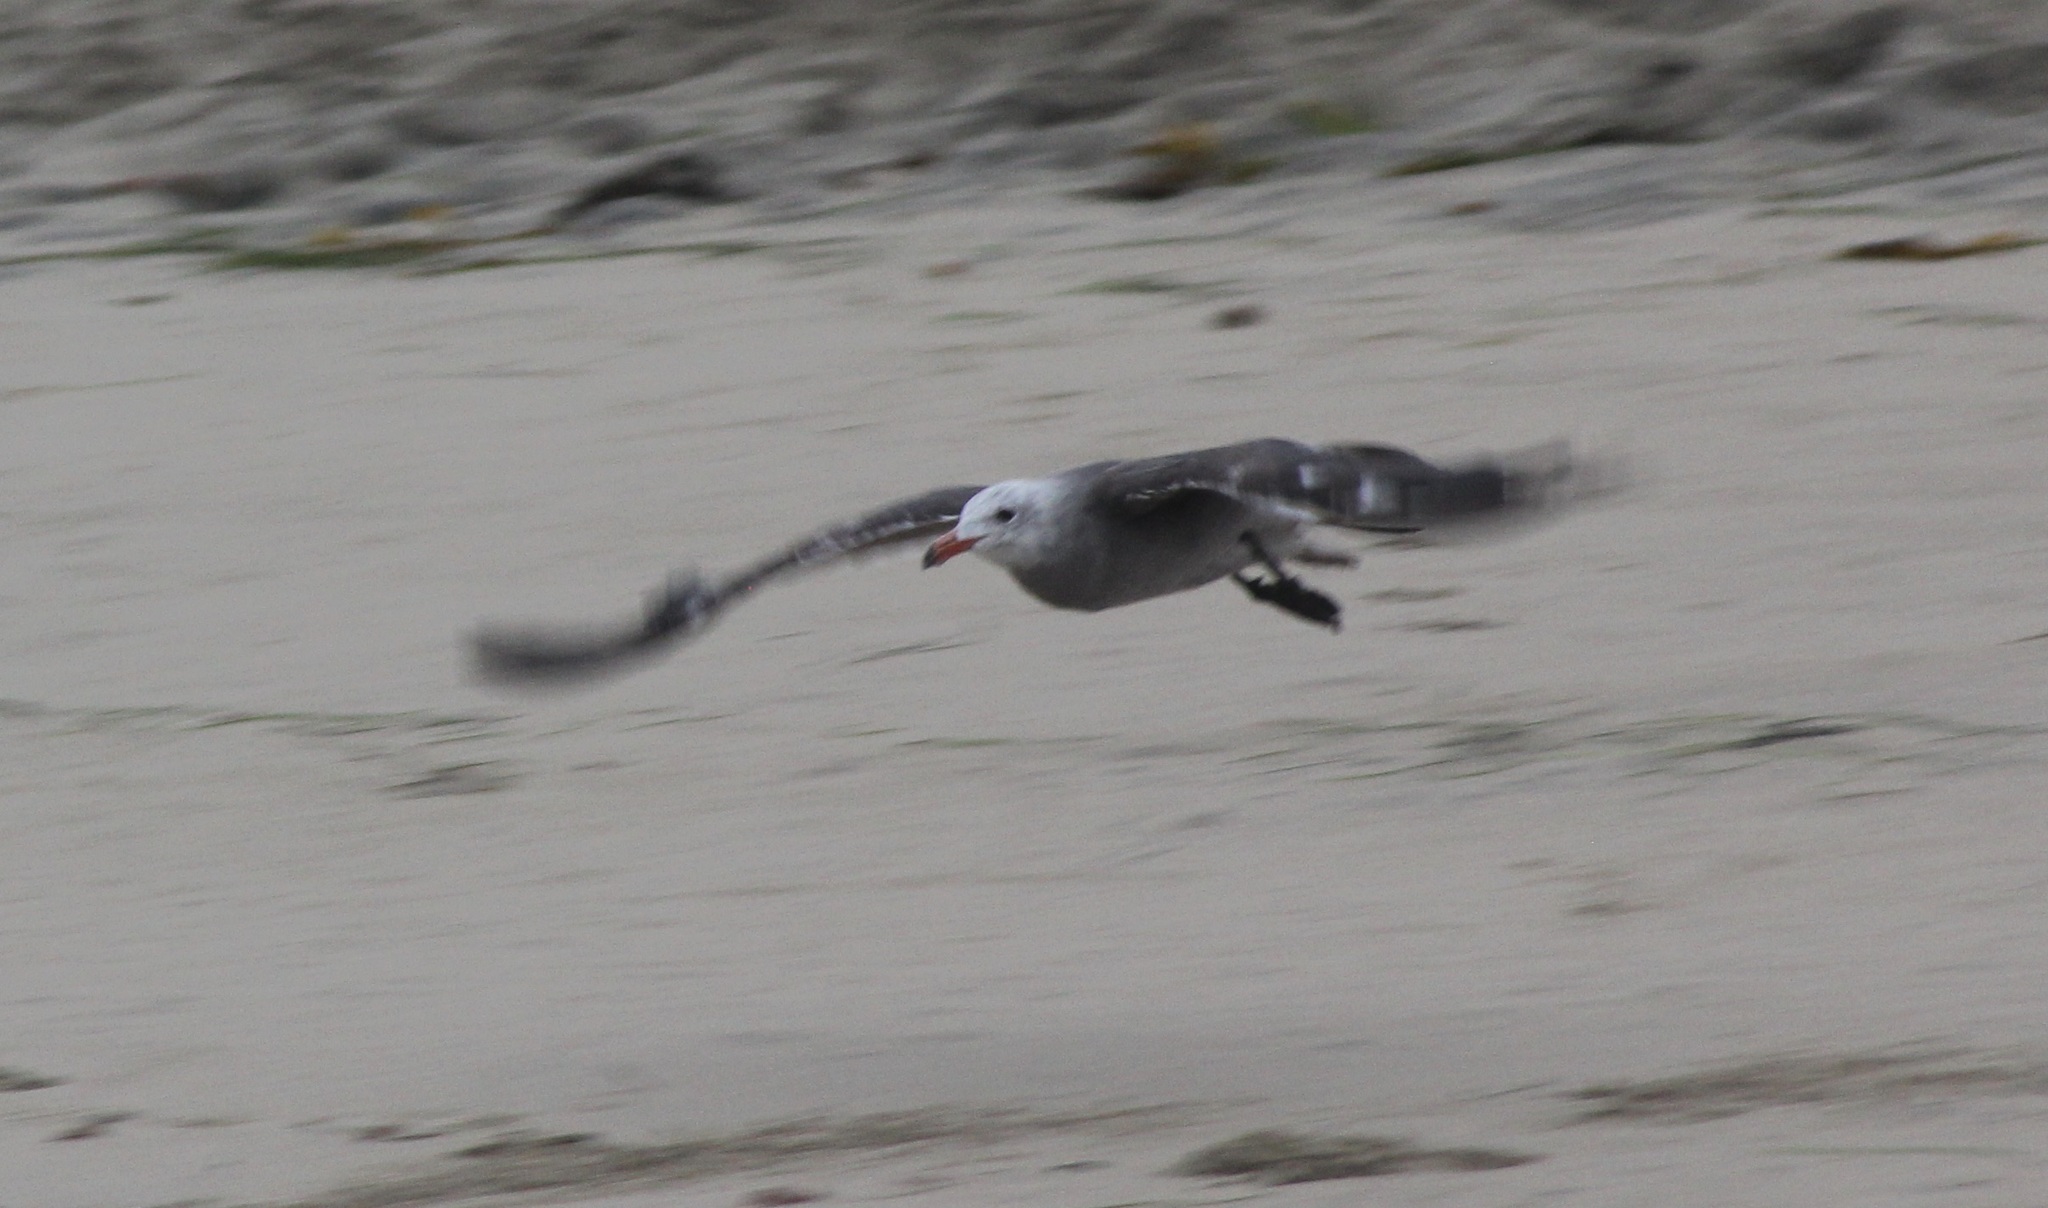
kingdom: Animalia
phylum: Chordata
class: Aves
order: Charadriiformes
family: Laridae
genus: Larus
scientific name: Larus heermanni
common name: Heermann's gull
